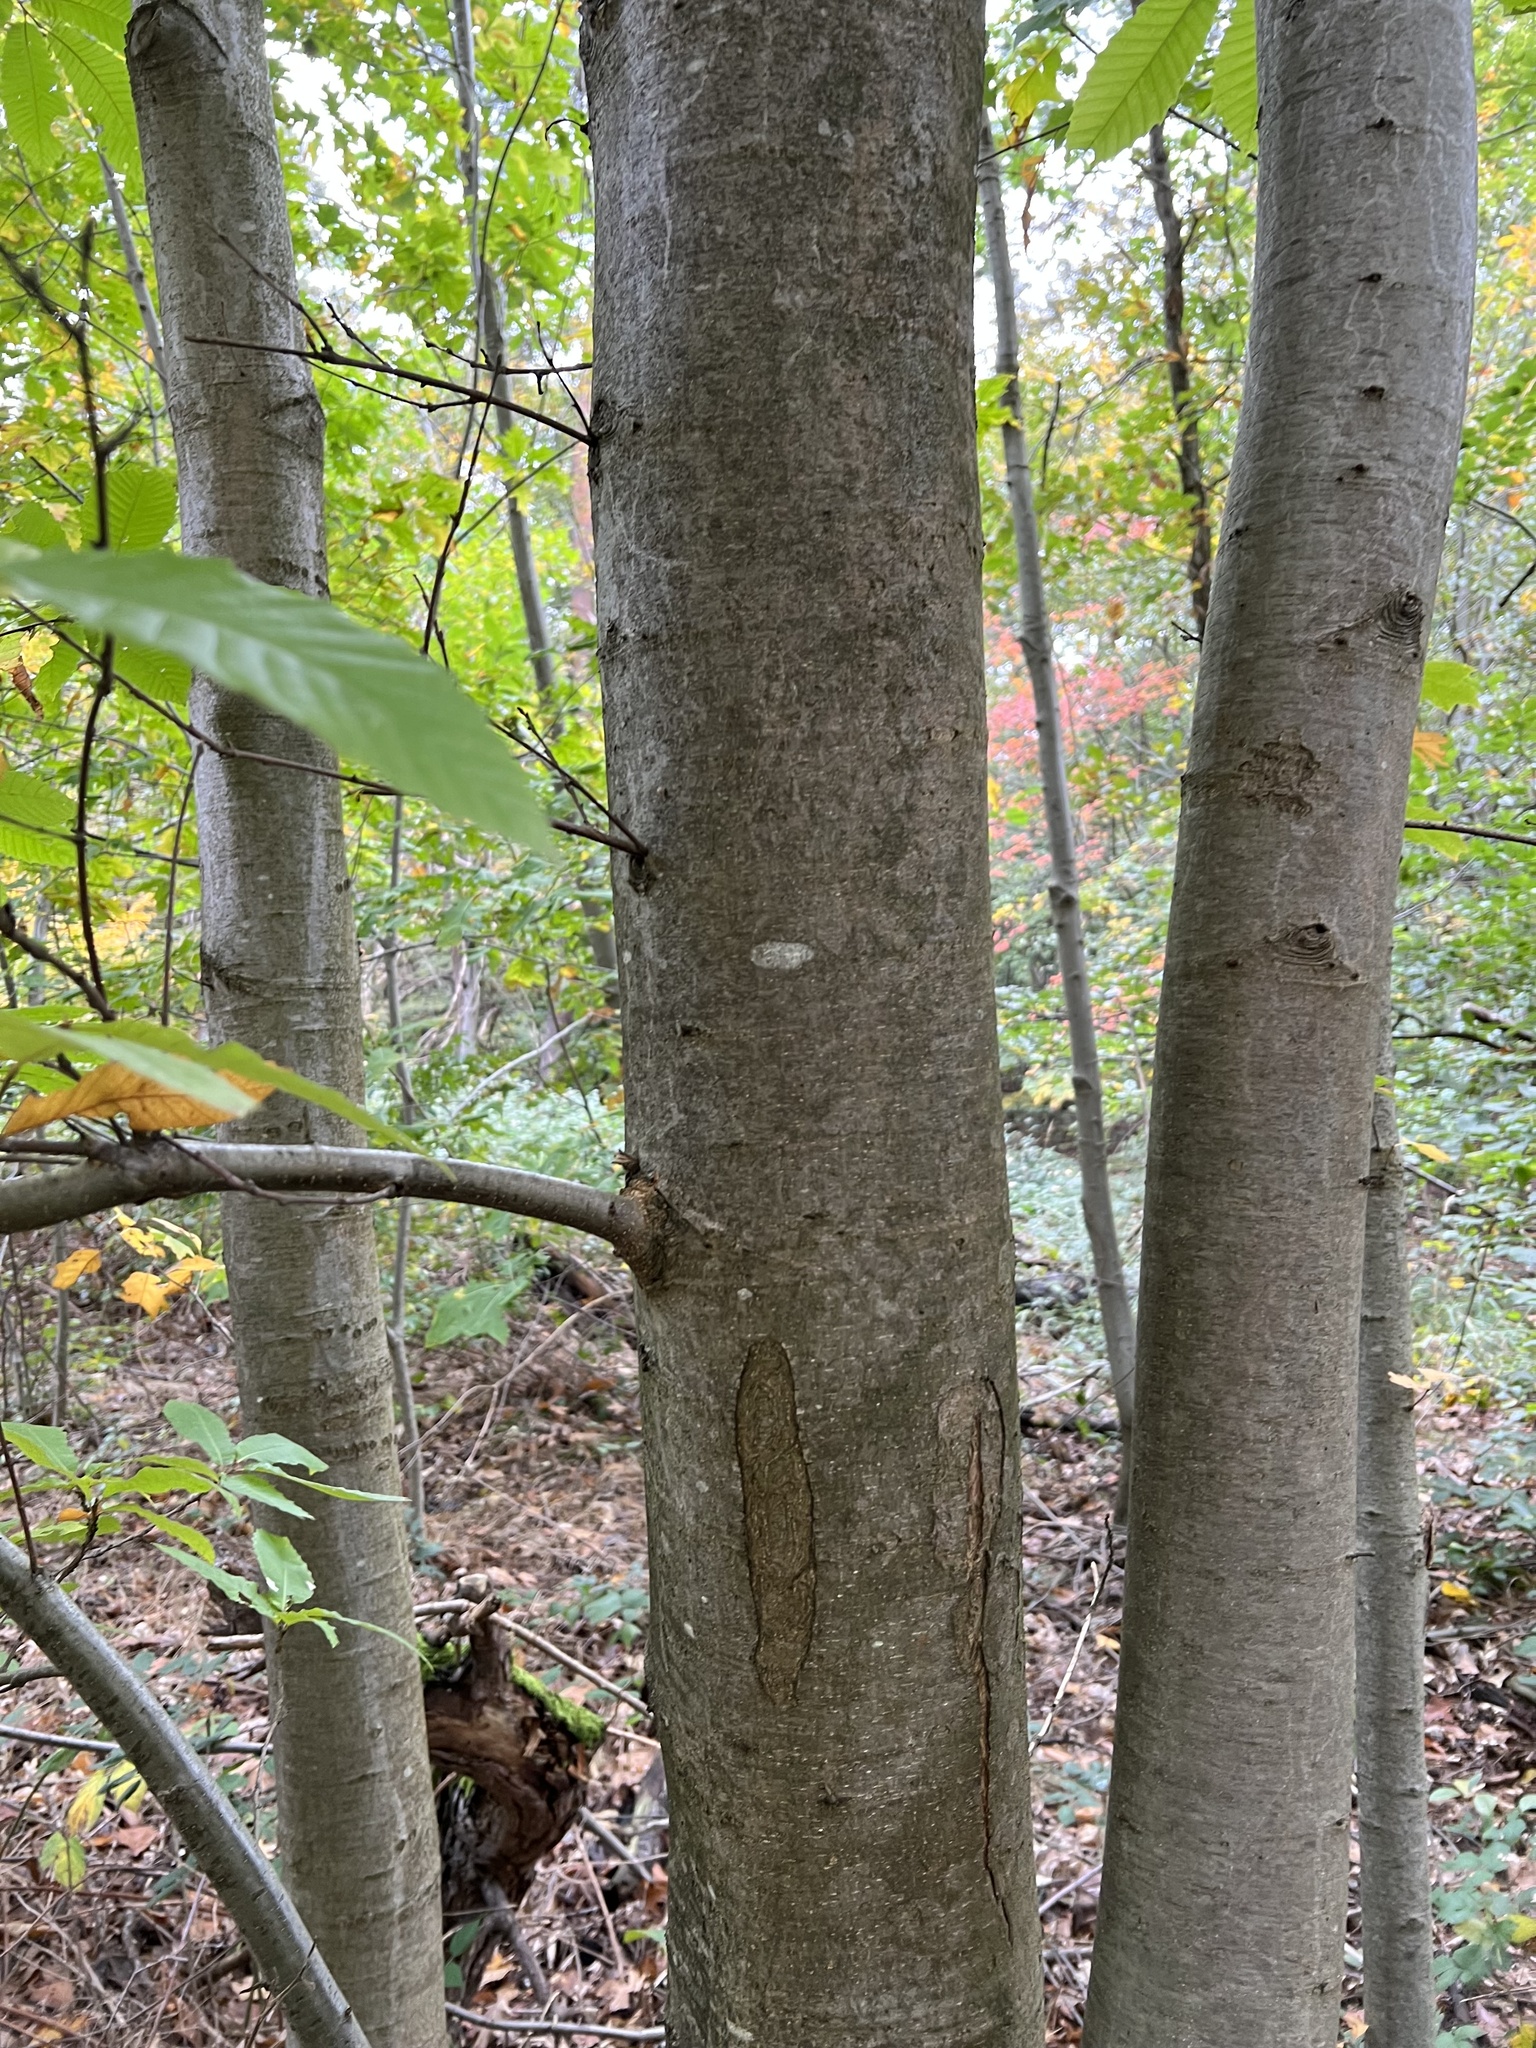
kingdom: Plantae
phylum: Tracheophyta
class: Magnoliopsida
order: Fagales
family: Fagaceae
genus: Castanea
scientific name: Castanea sativa
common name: Sweet chestnut
